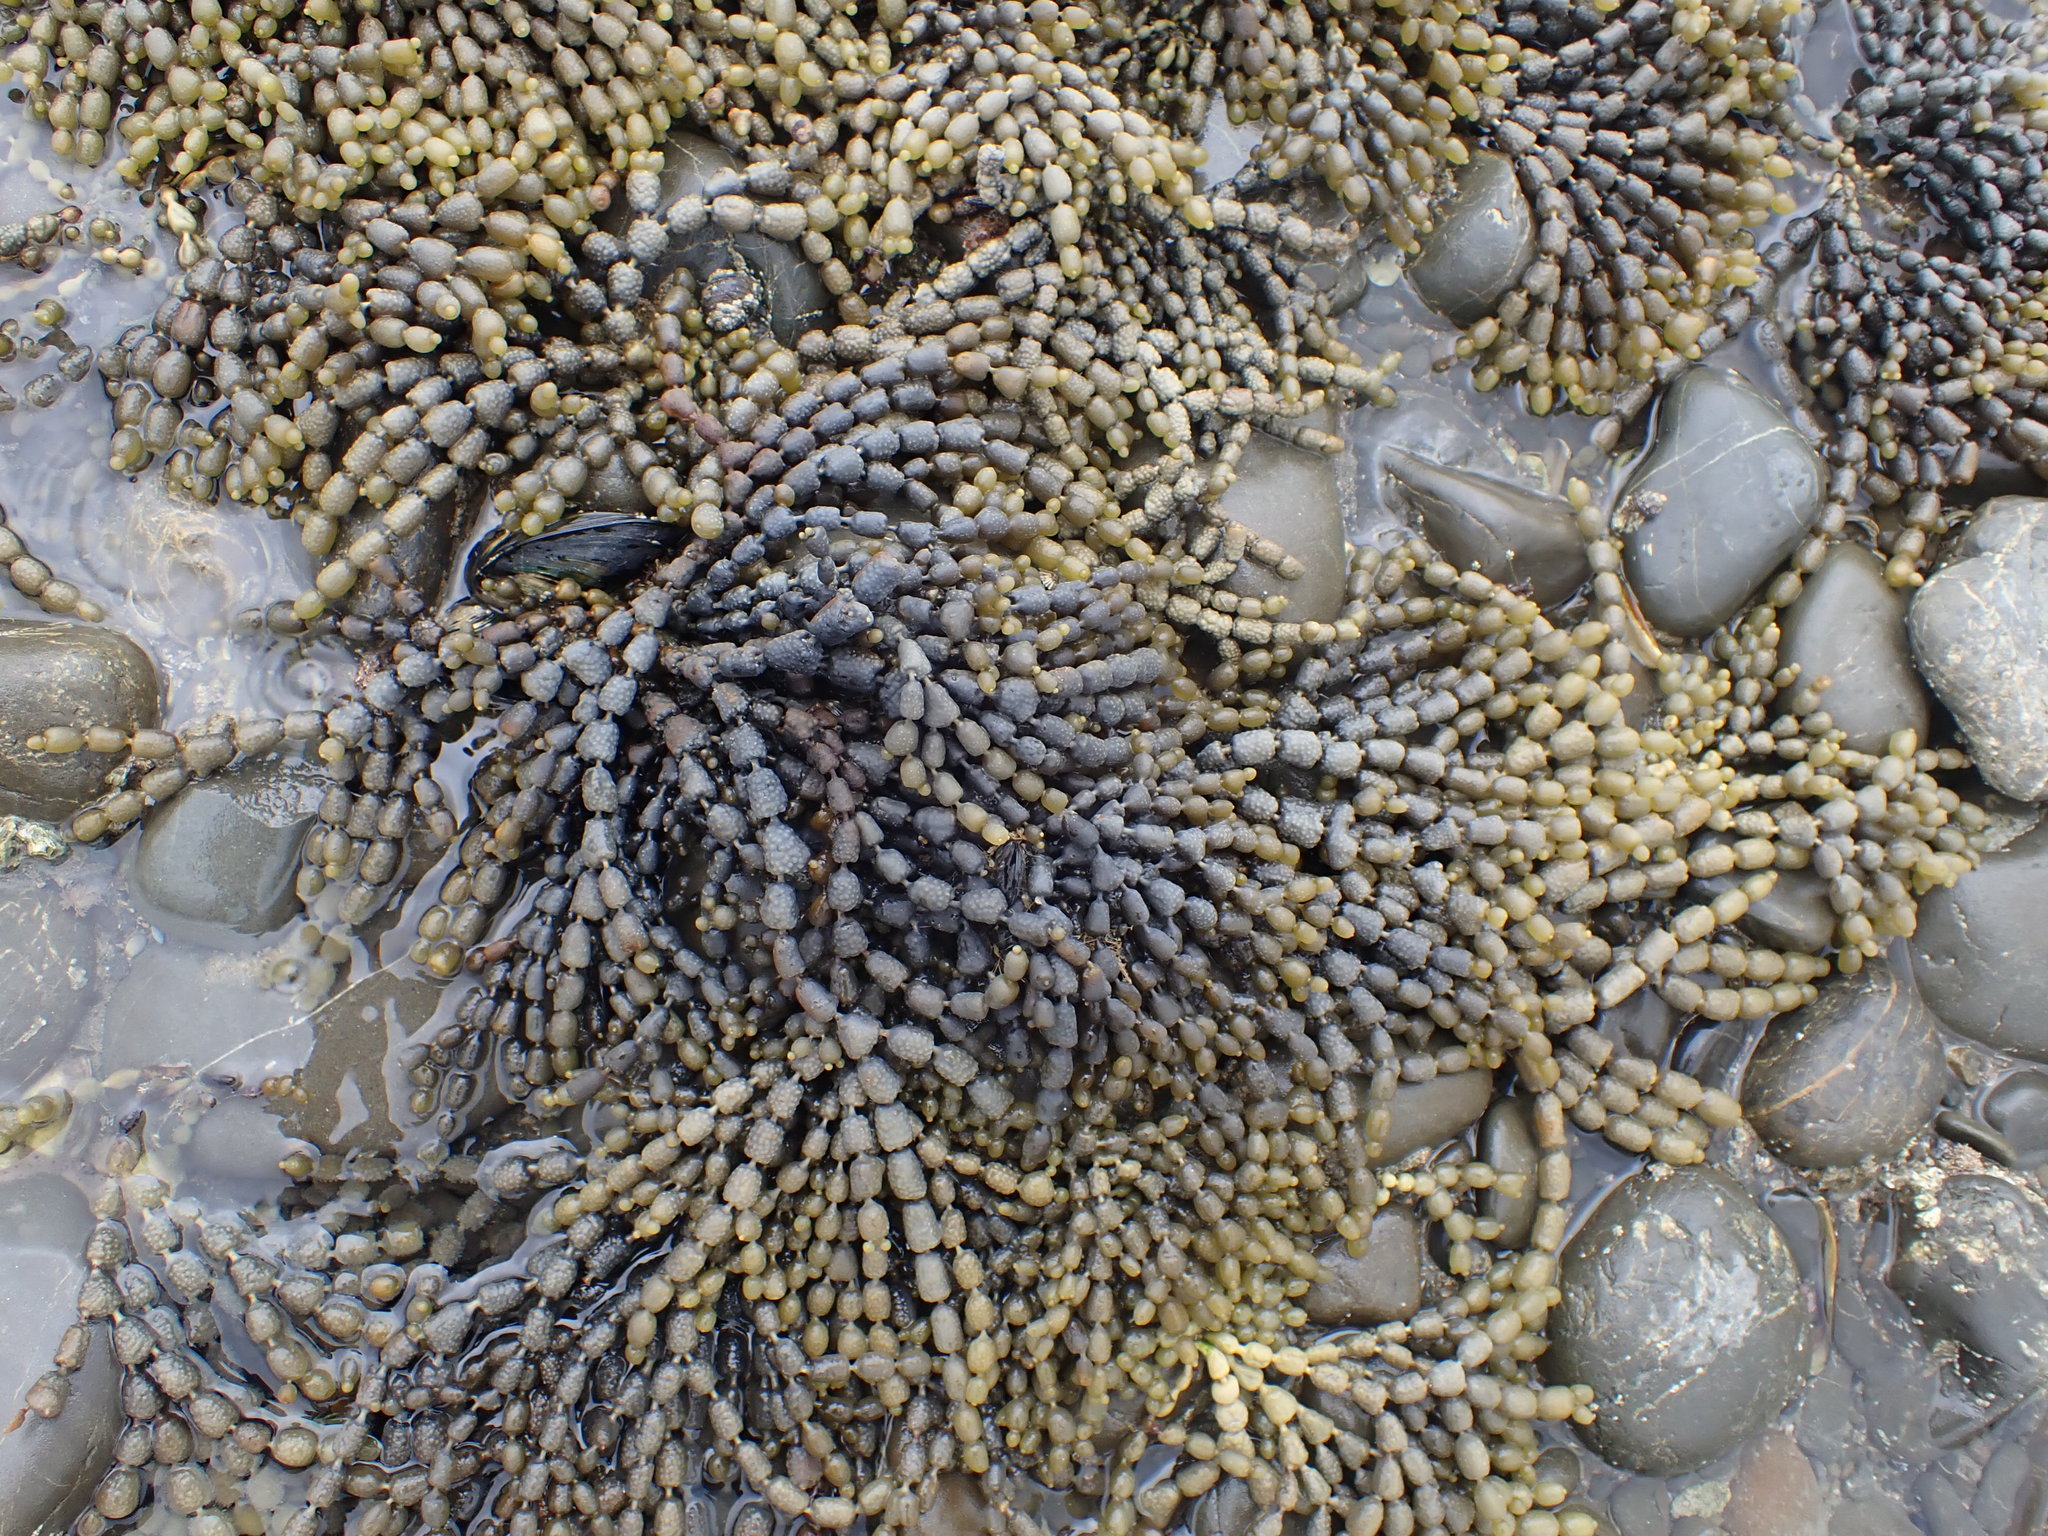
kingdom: Chromista
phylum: Ochrophyta
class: Phaeophyceae
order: Fucales
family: Hormosiraceae
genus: Hormosira
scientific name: Hormosira banksii
